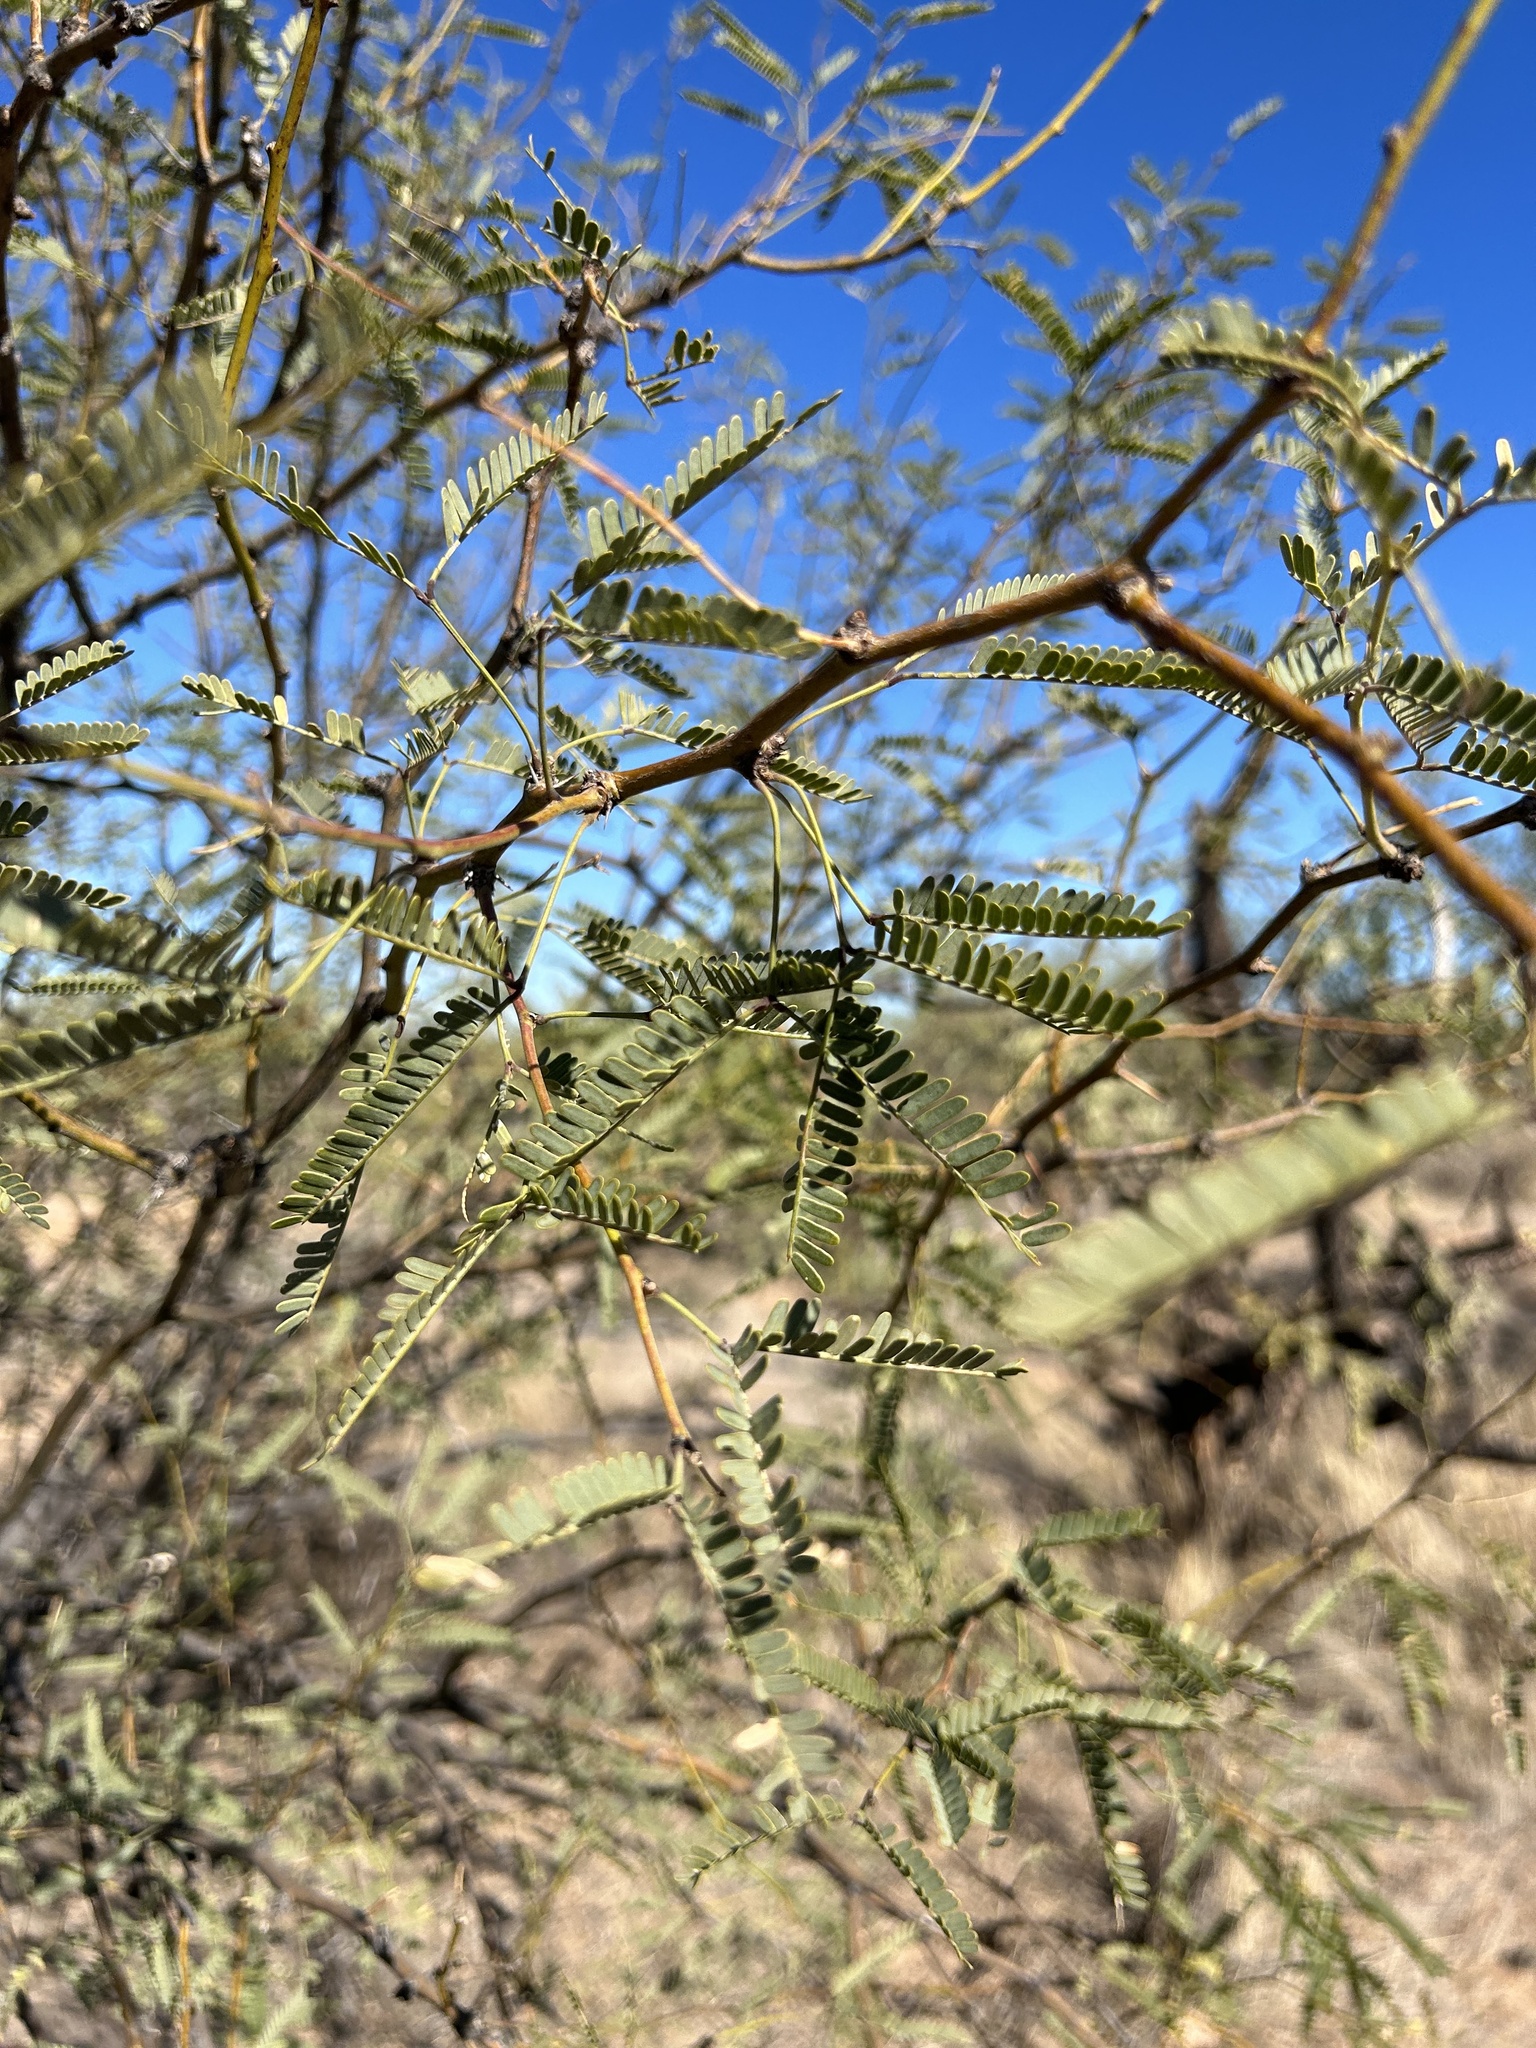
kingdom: Plantae
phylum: Tracheophyta
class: Magnoliopsida
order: Fabales
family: Fabaceae
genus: Prosopis
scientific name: Prosopis velutina
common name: Velvet mesquite
